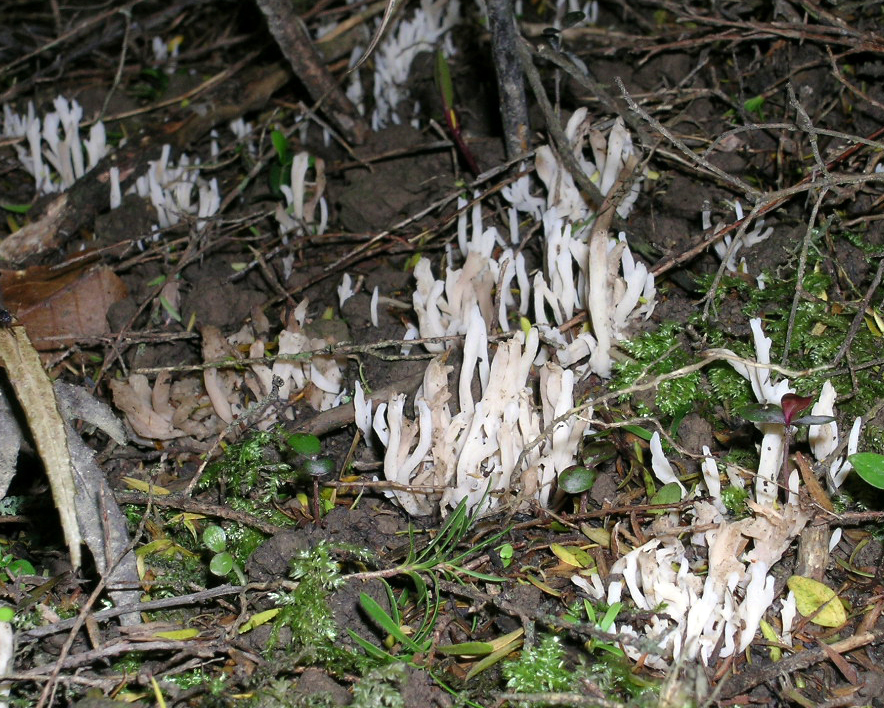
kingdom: Fungi
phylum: Basidiomycota
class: Agaricomycetes
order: Cantharellales
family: Hydnaceae
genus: Clavulina
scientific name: Clavulina subrugosa
